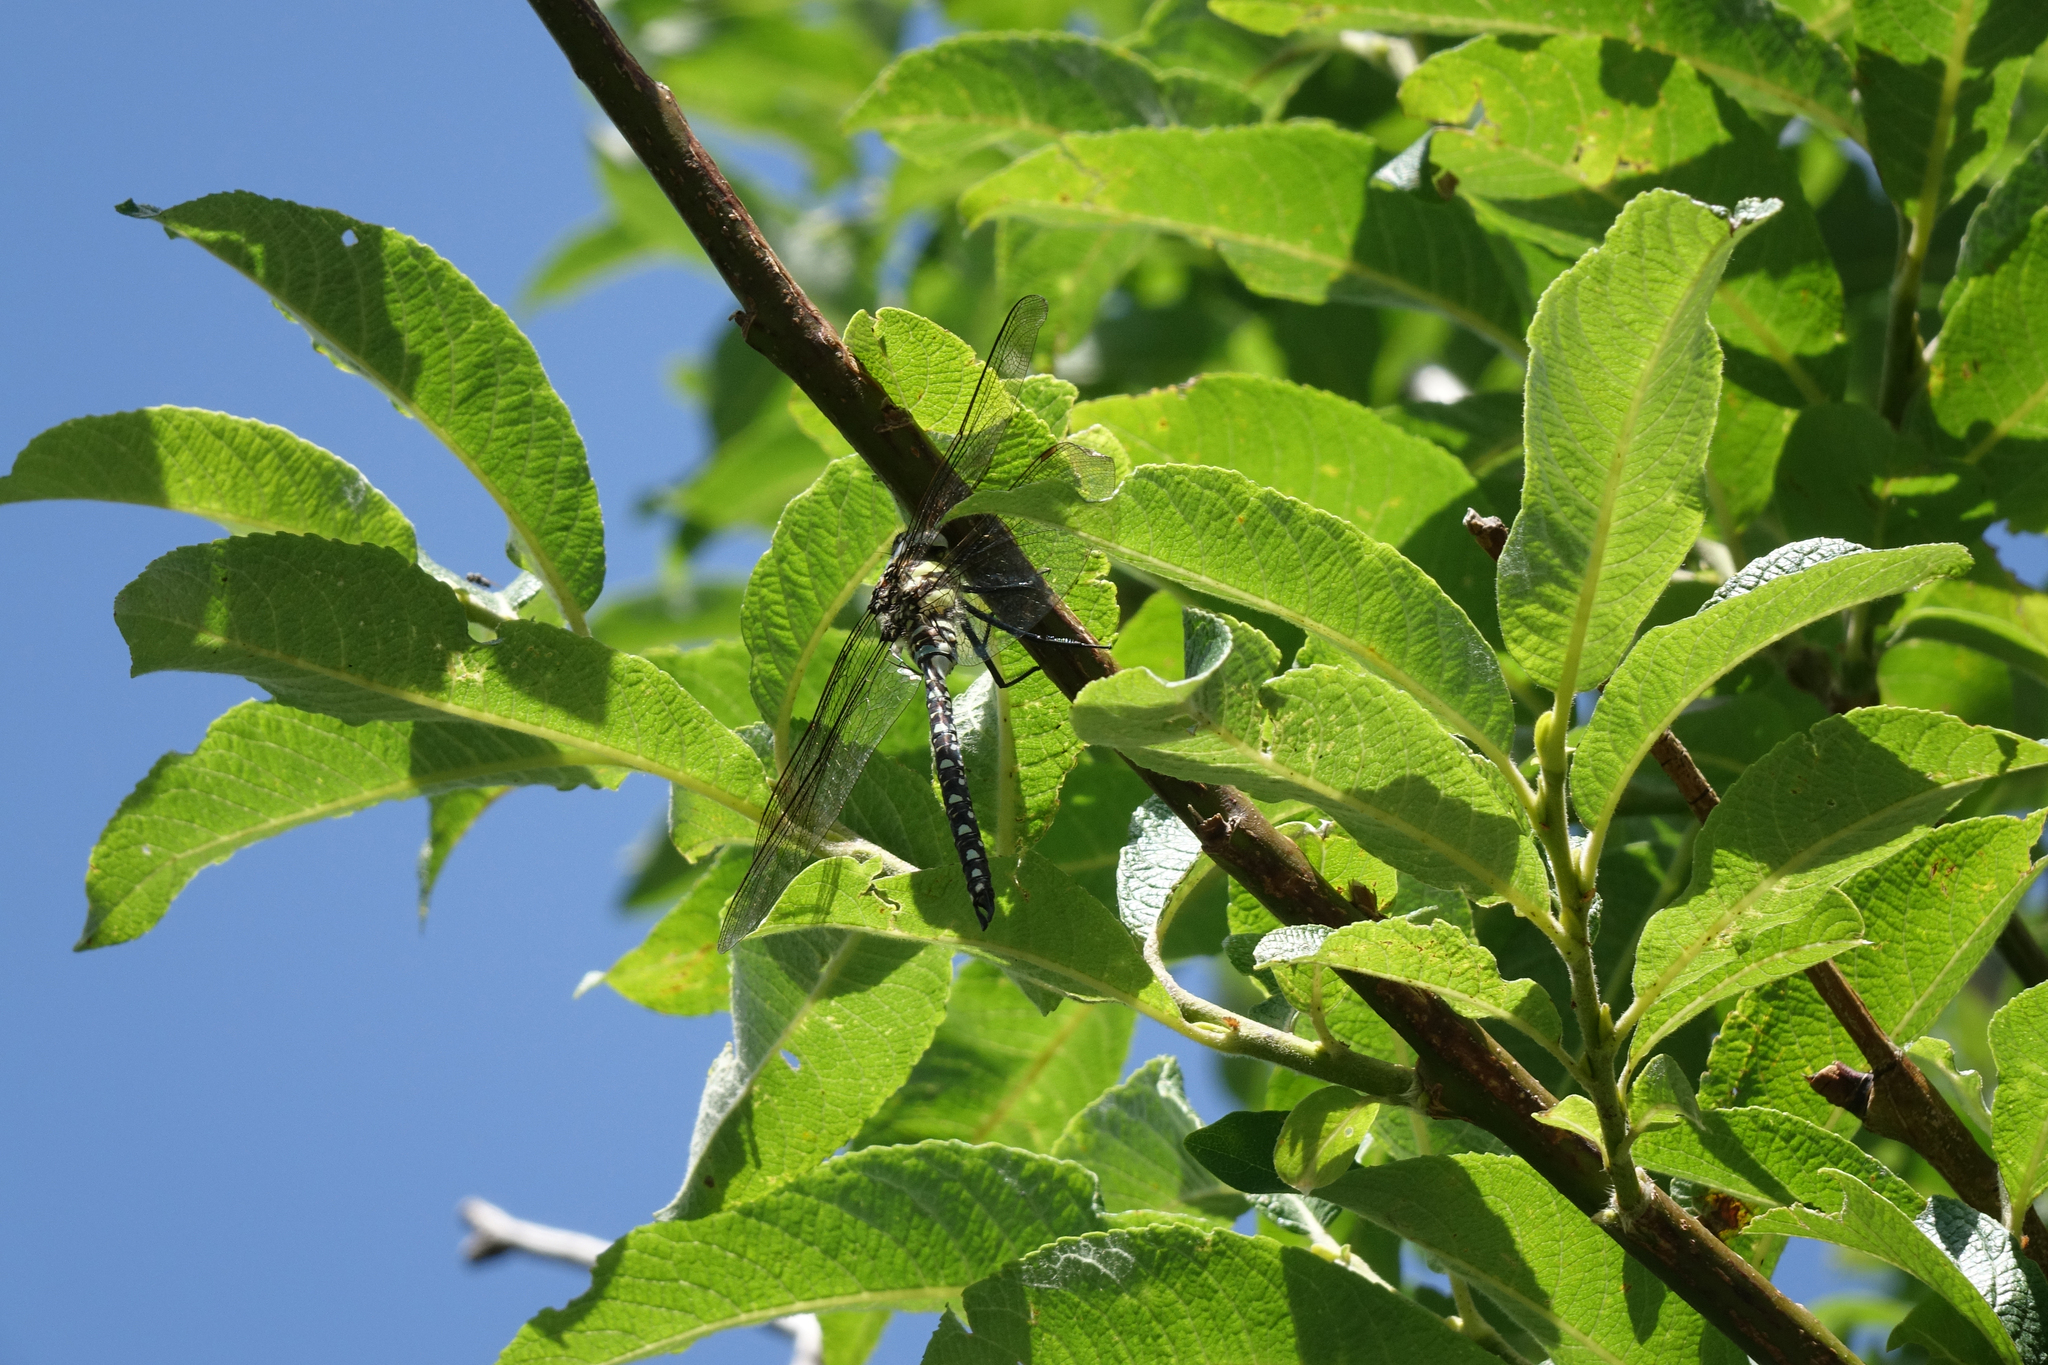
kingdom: Animalia
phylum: Arthropoda
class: Insecta
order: Odonata
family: Aeshnidae
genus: Aeshna
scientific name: Aeshna juncea
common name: Moorland hawker
